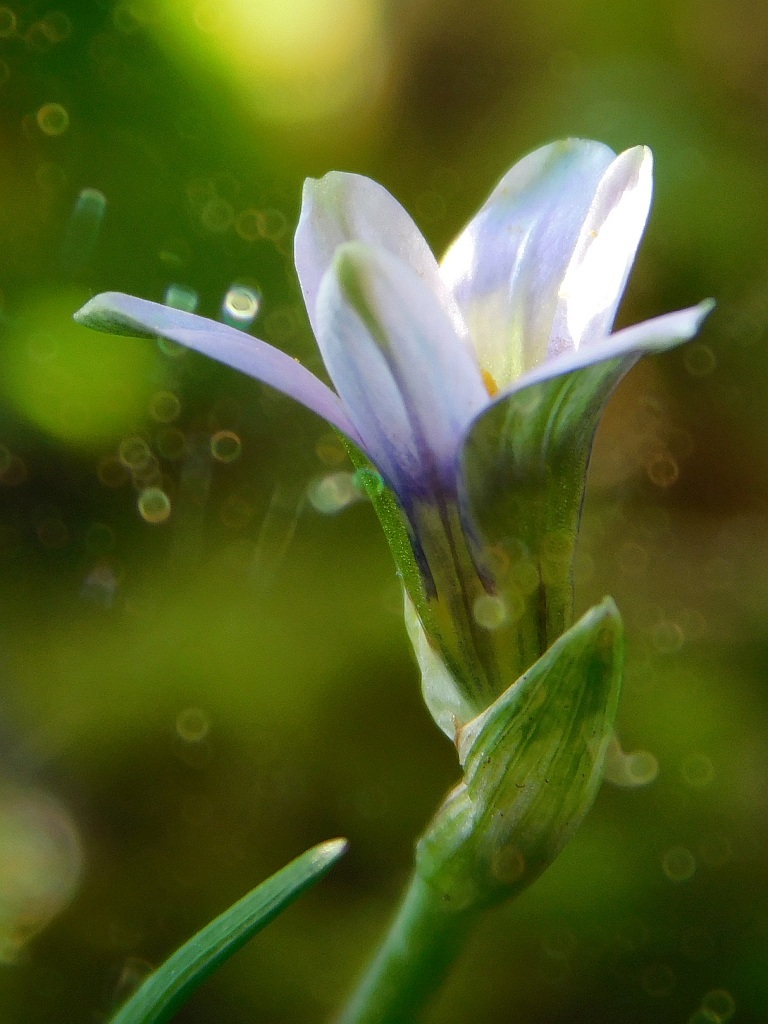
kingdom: Plantae
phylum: Tracheophyta
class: Liliopsida
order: Asparagales
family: Iridaceae
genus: Romulea
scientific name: Romulea minutiflora
